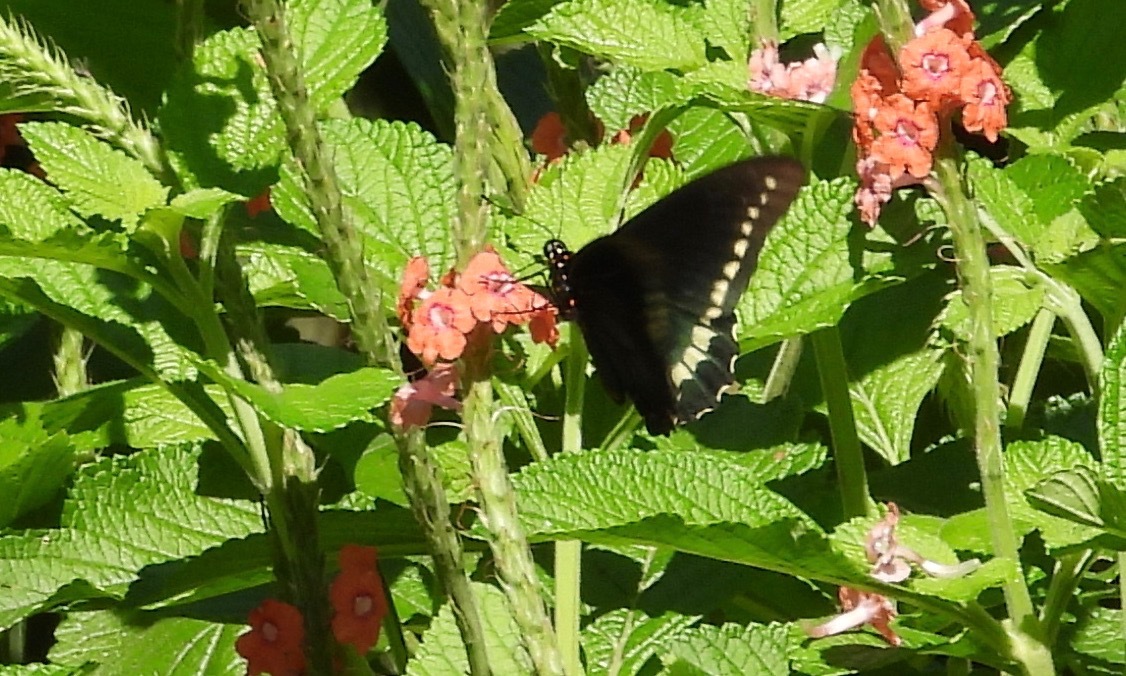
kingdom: Animalia
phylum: Arthropoda
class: Insecta
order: Lepidoptera
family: Papilionidae
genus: Battus
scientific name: Battus polydamas
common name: Polydamas swallowtail
